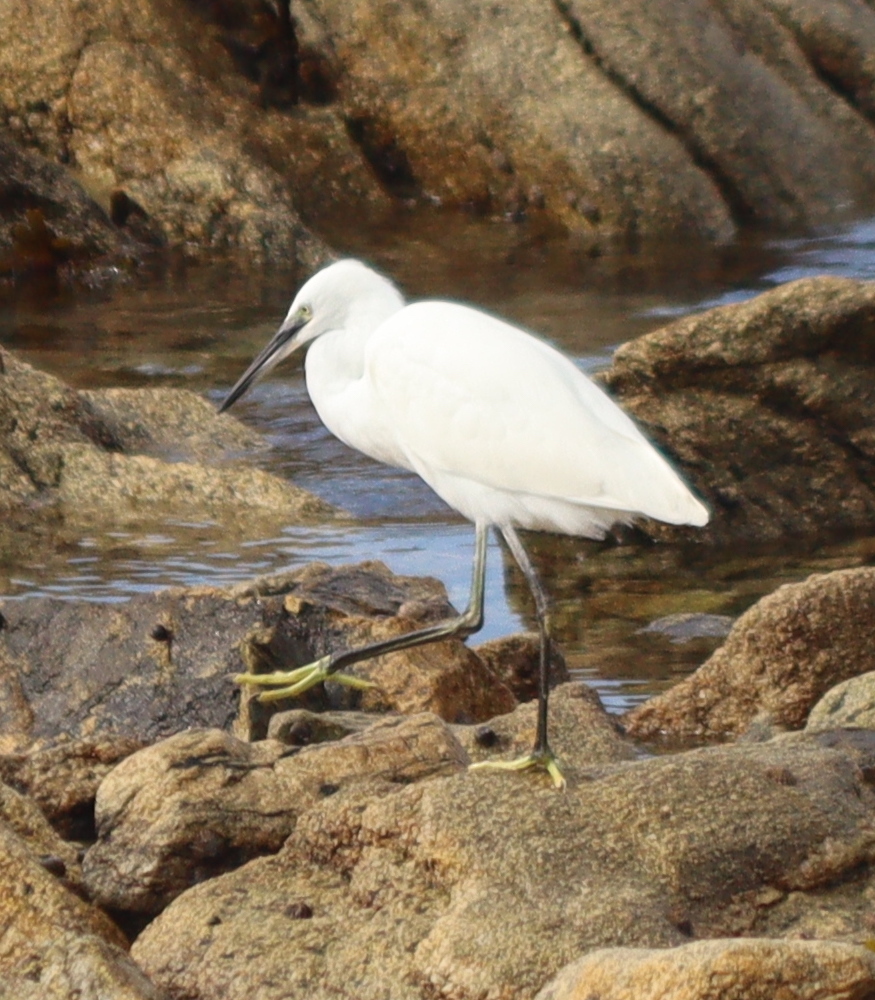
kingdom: Animalia
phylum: Chordata
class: Aves
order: Pelecaniformes
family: Ardeidae
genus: Egretta
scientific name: Egretta garzetta
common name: Little egret
